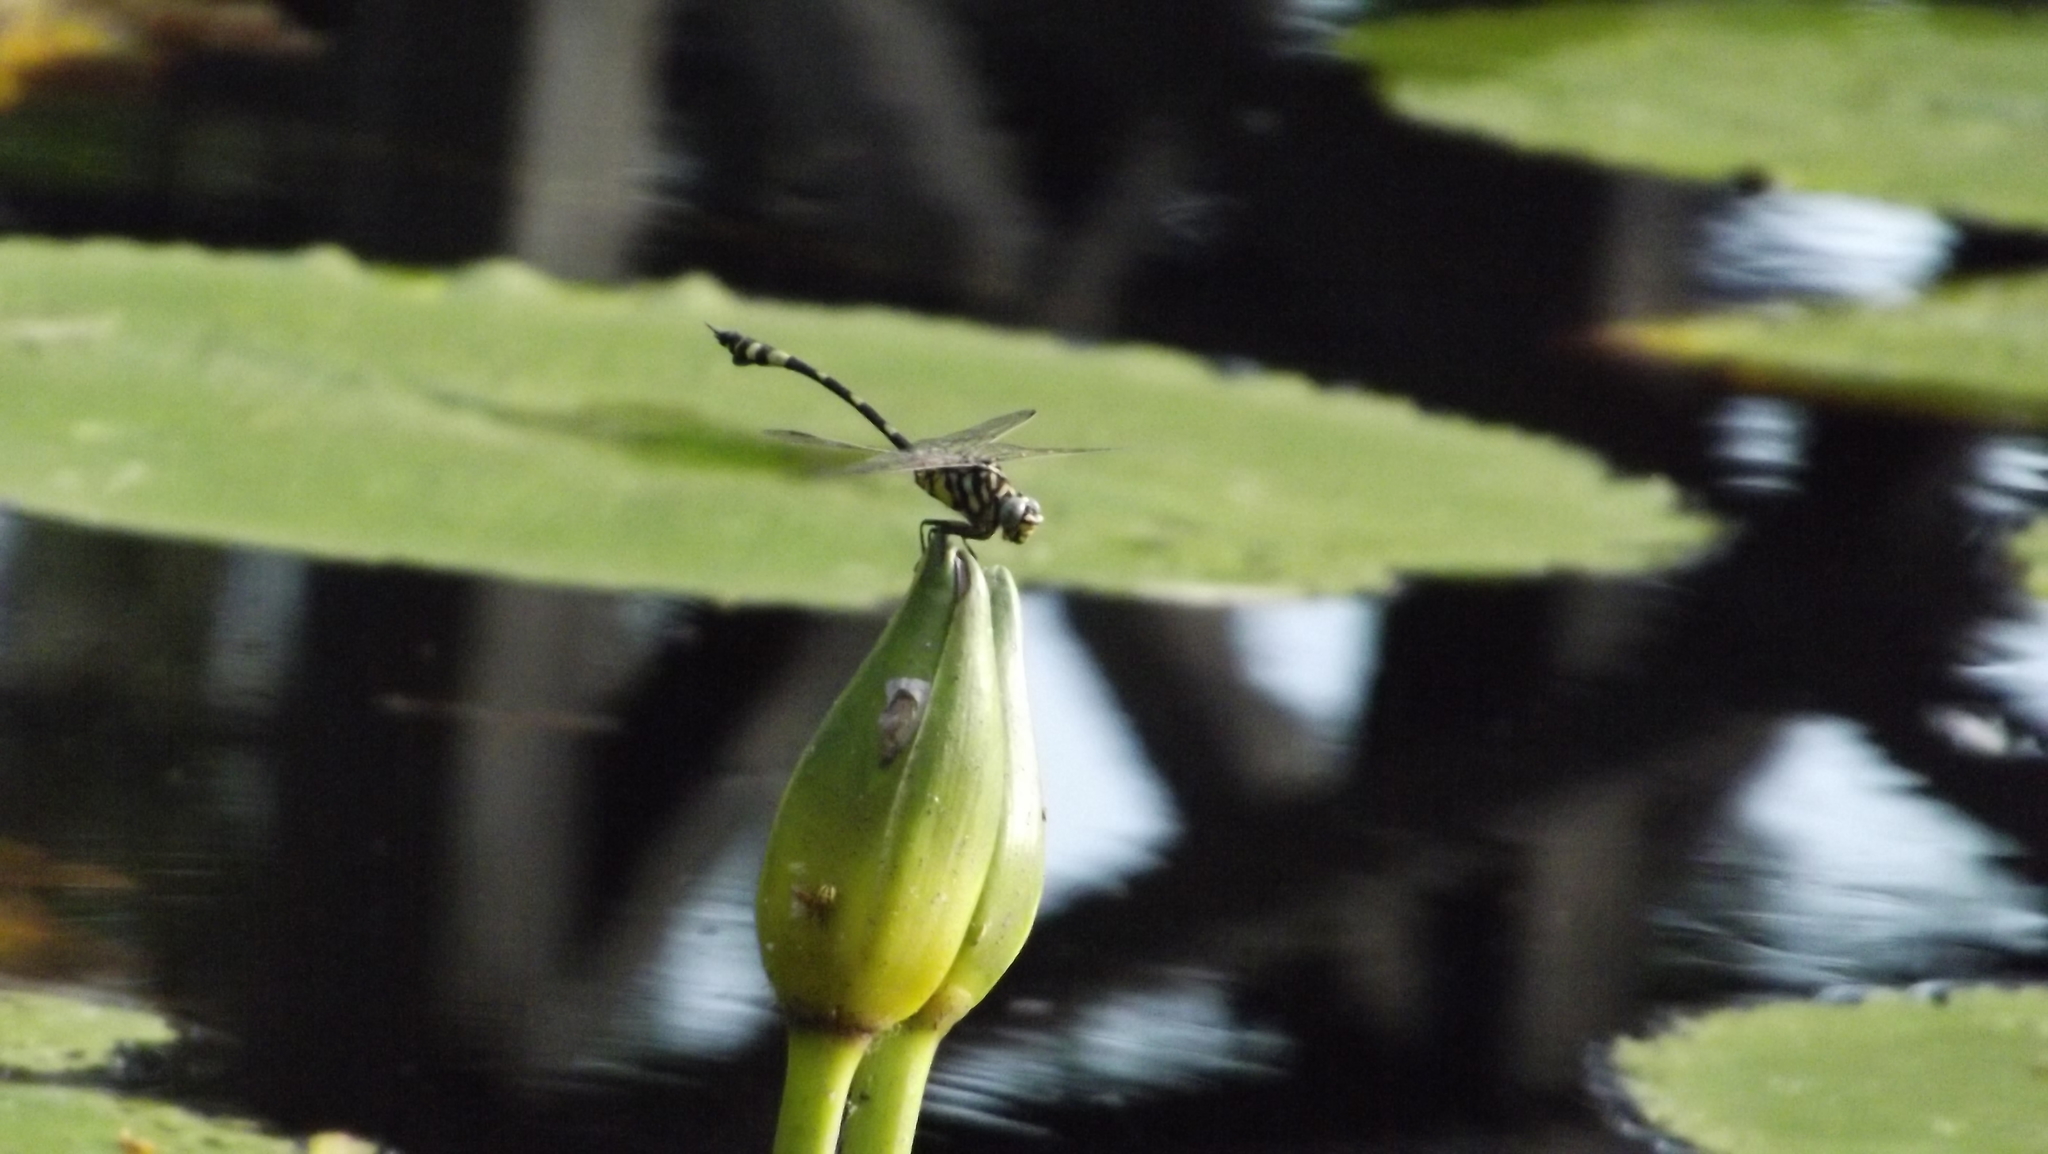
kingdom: Animalia
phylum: Arthropoda
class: Insecta
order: Odonata
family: Gomphidae
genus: Ictinogomphus
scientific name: Ictinogomphus australis
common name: Australian tiger
